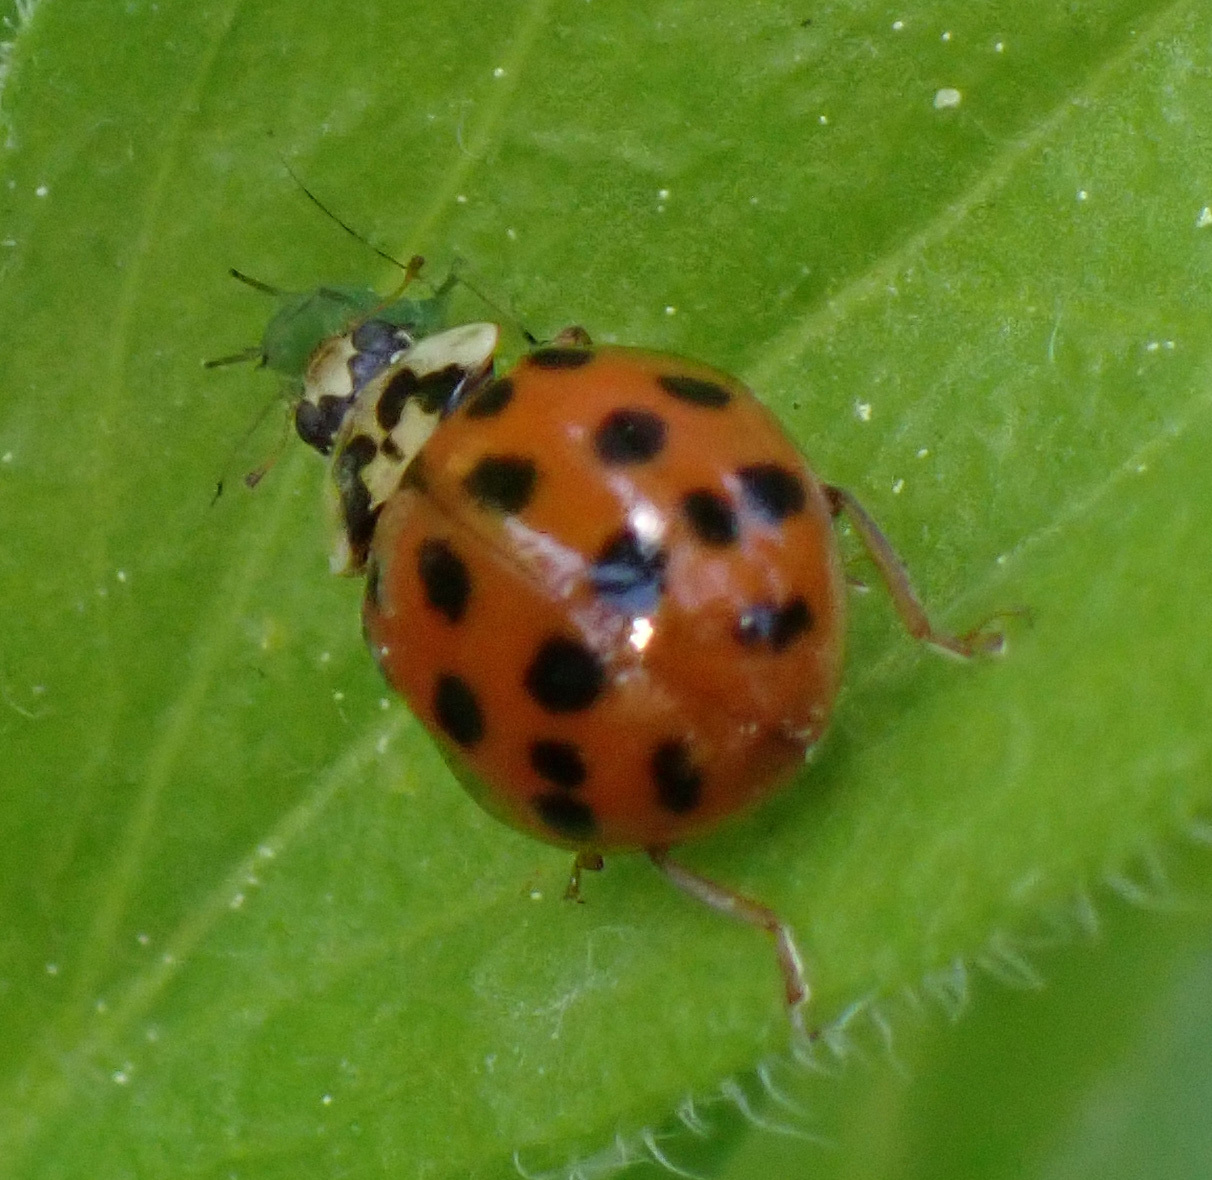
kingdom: Animalia
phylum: Arthropoda
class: Insecta
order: Coleoptera
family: Coccinellidae
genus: Harmonia
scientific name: Harmonia axyridis
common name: Harlequin ladybird
